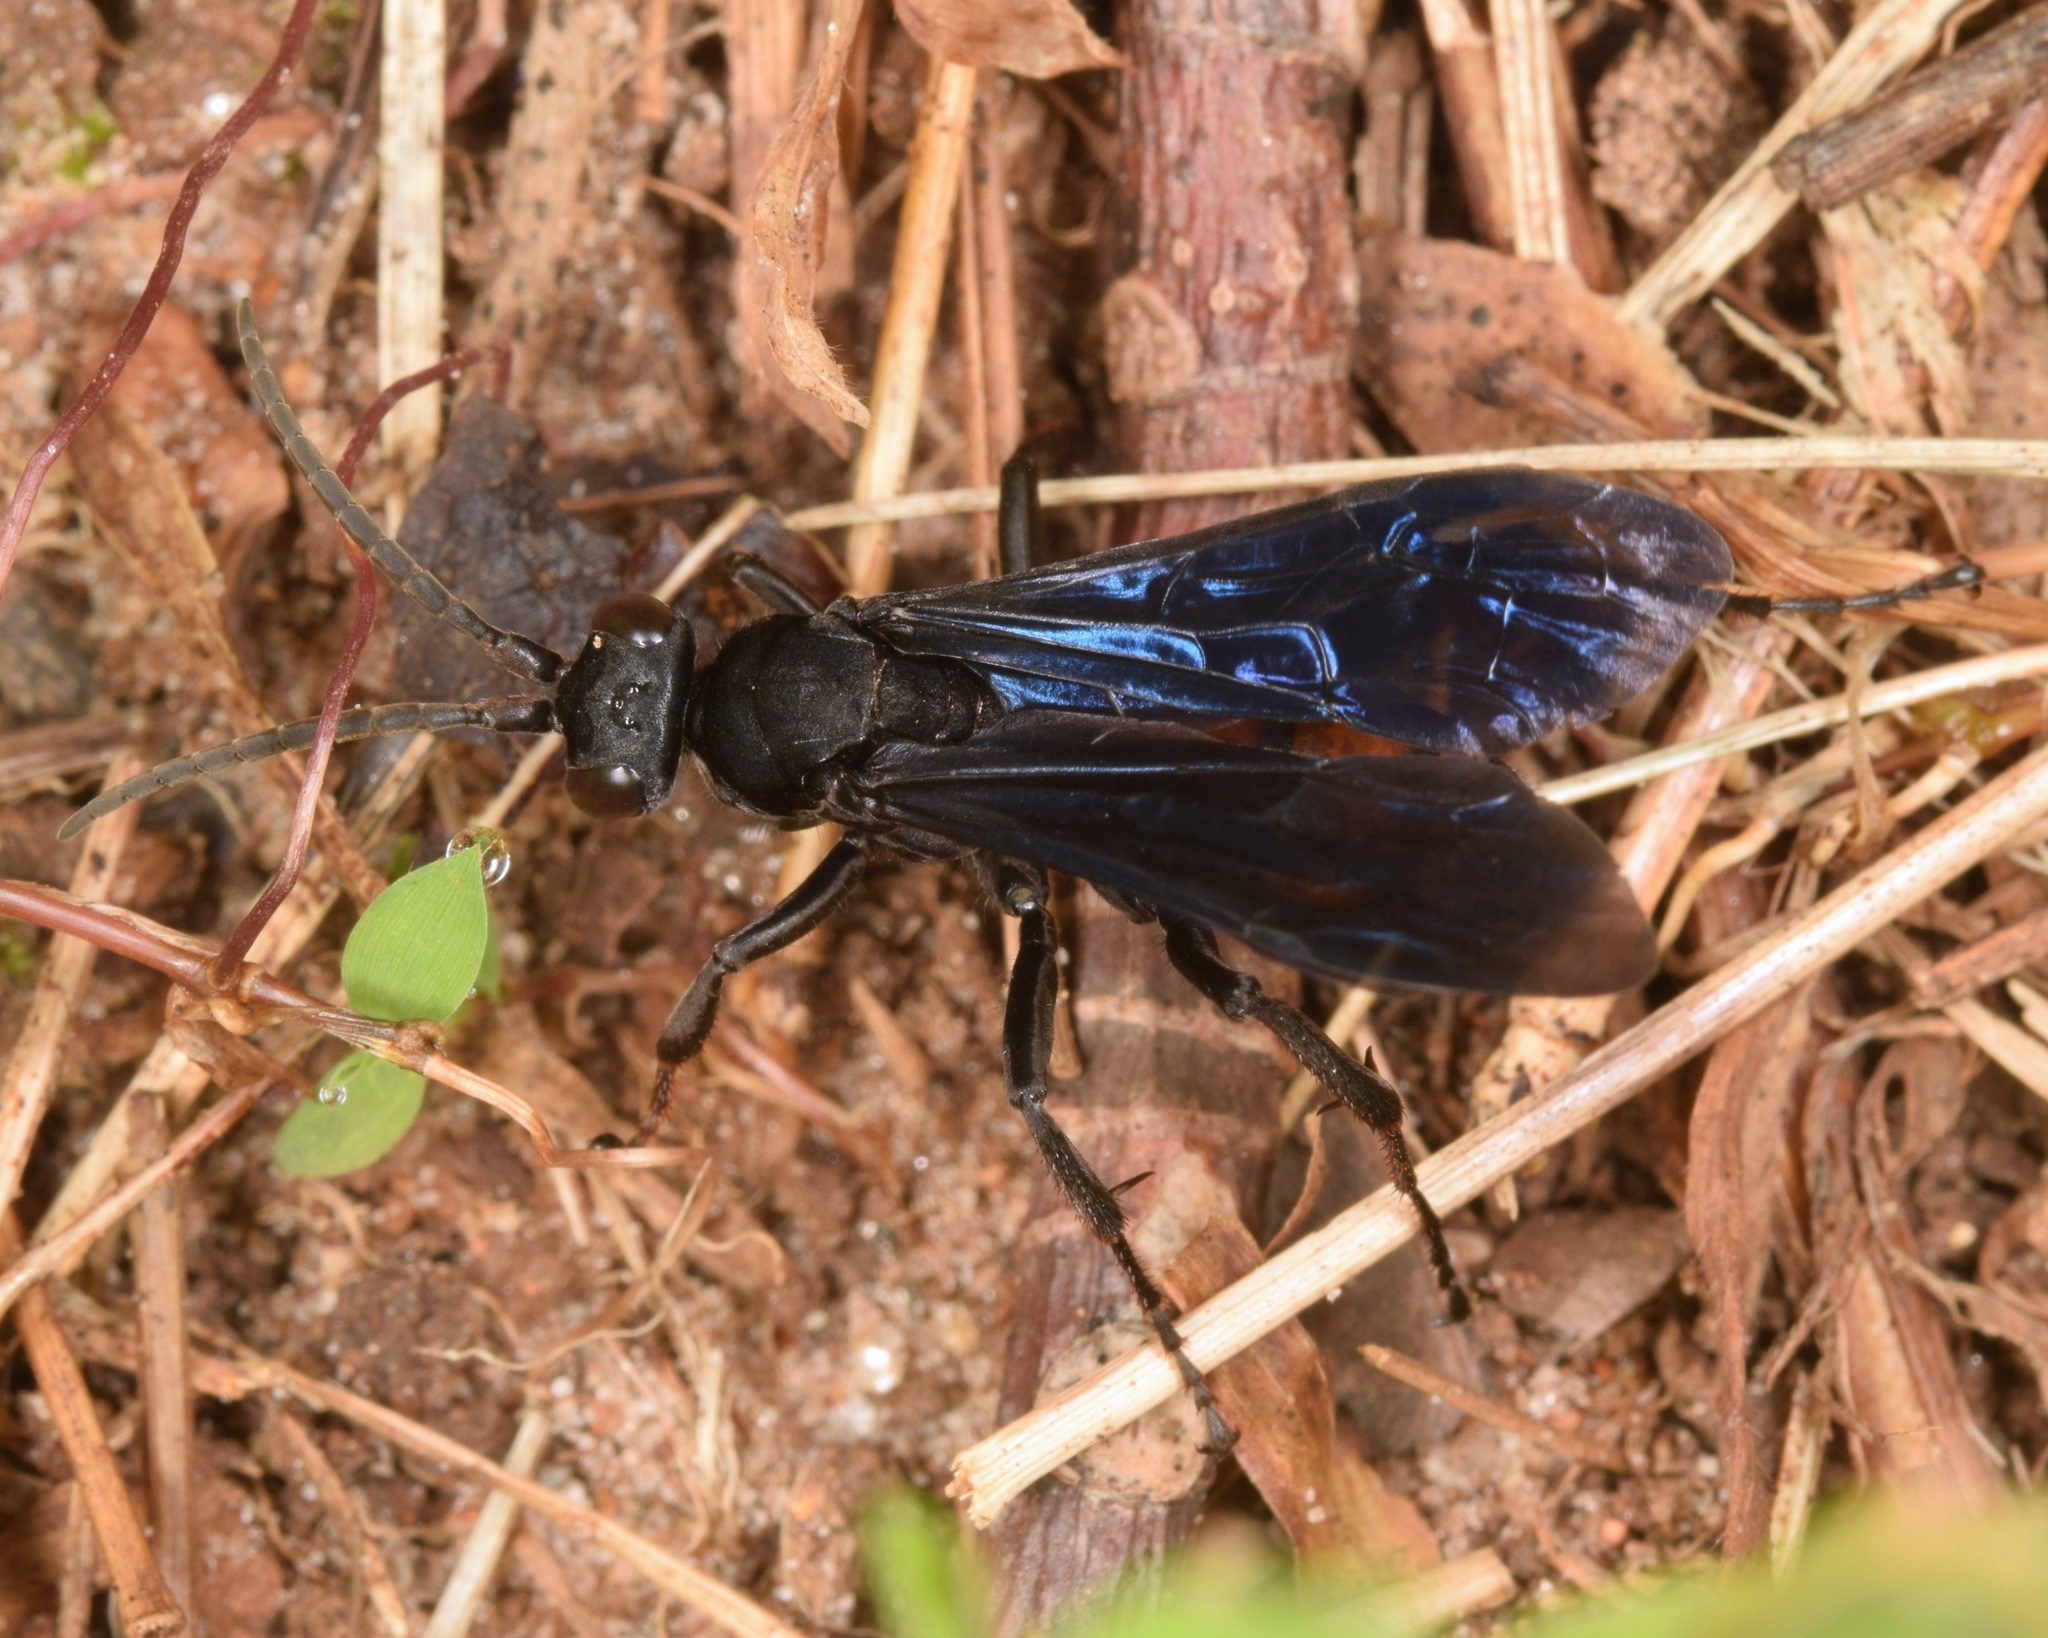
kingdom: Animalia
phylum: Arthropoda
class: Insecta
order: Hymenoptera
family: Pompilidae
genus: Chirodamus
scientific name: Chirodamus validus
